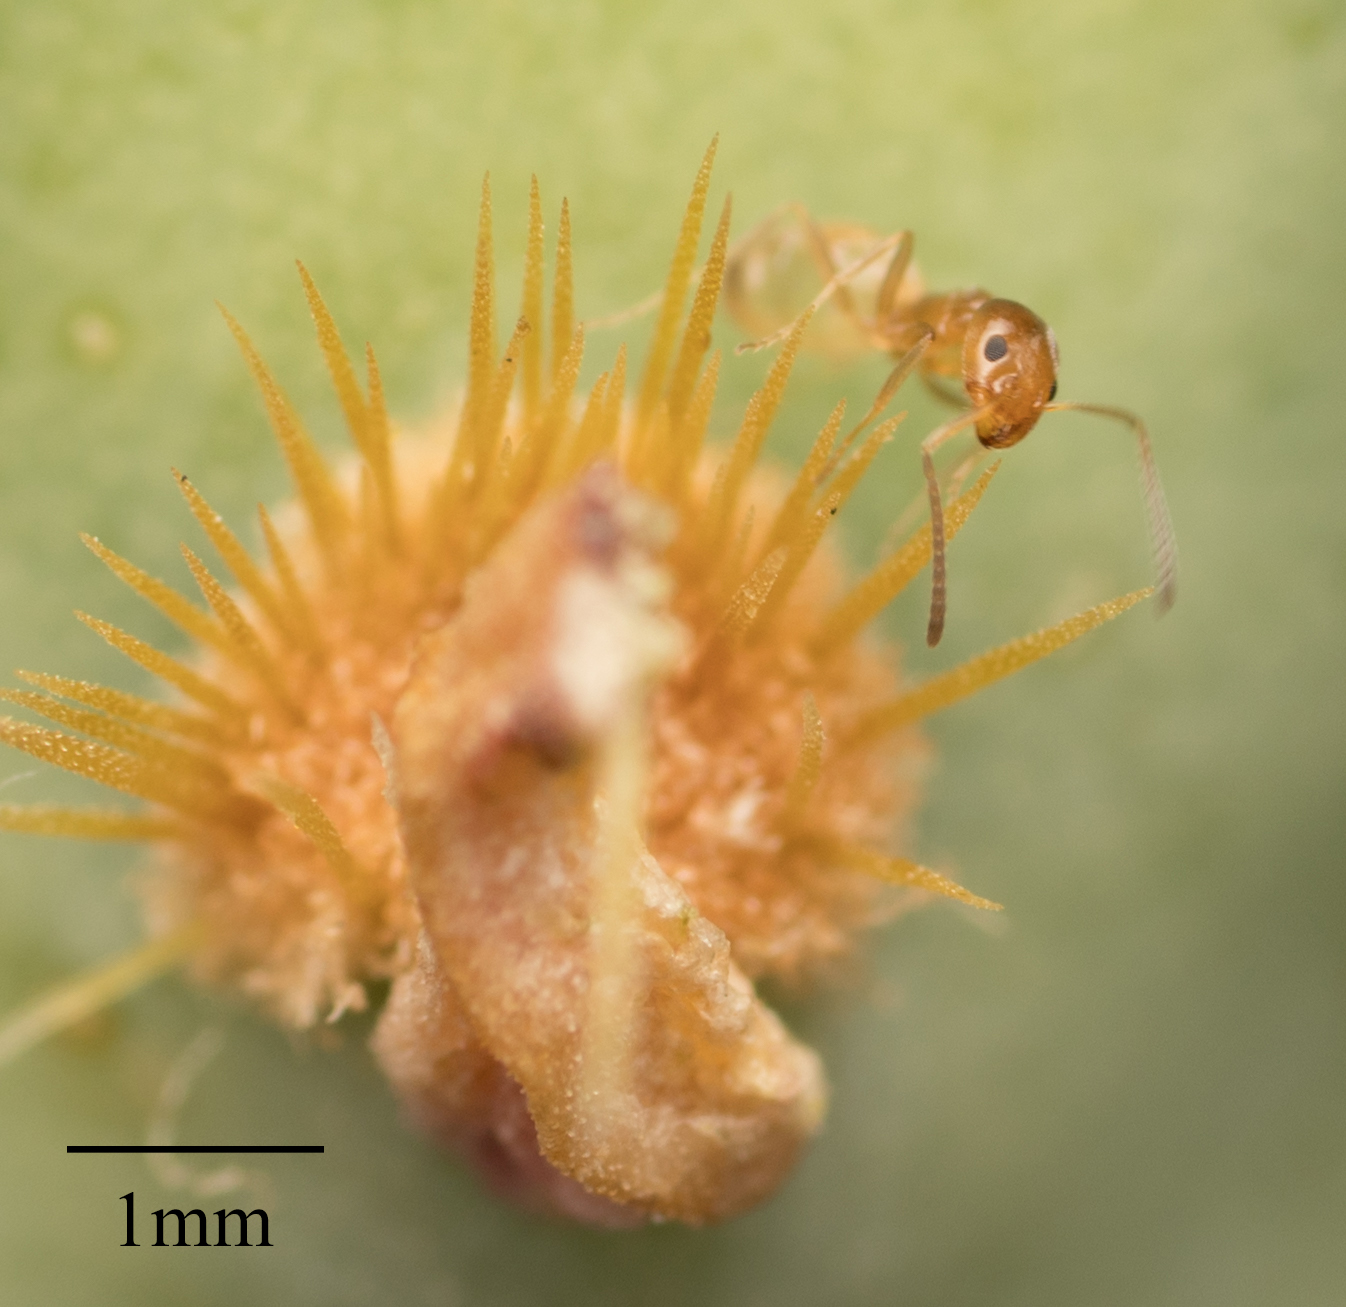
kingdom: Animalia
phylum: Arthropoda
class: Insecta
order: Hymenoptera
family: Formicidae
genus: Forelius
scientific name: Forelius pruinosus
